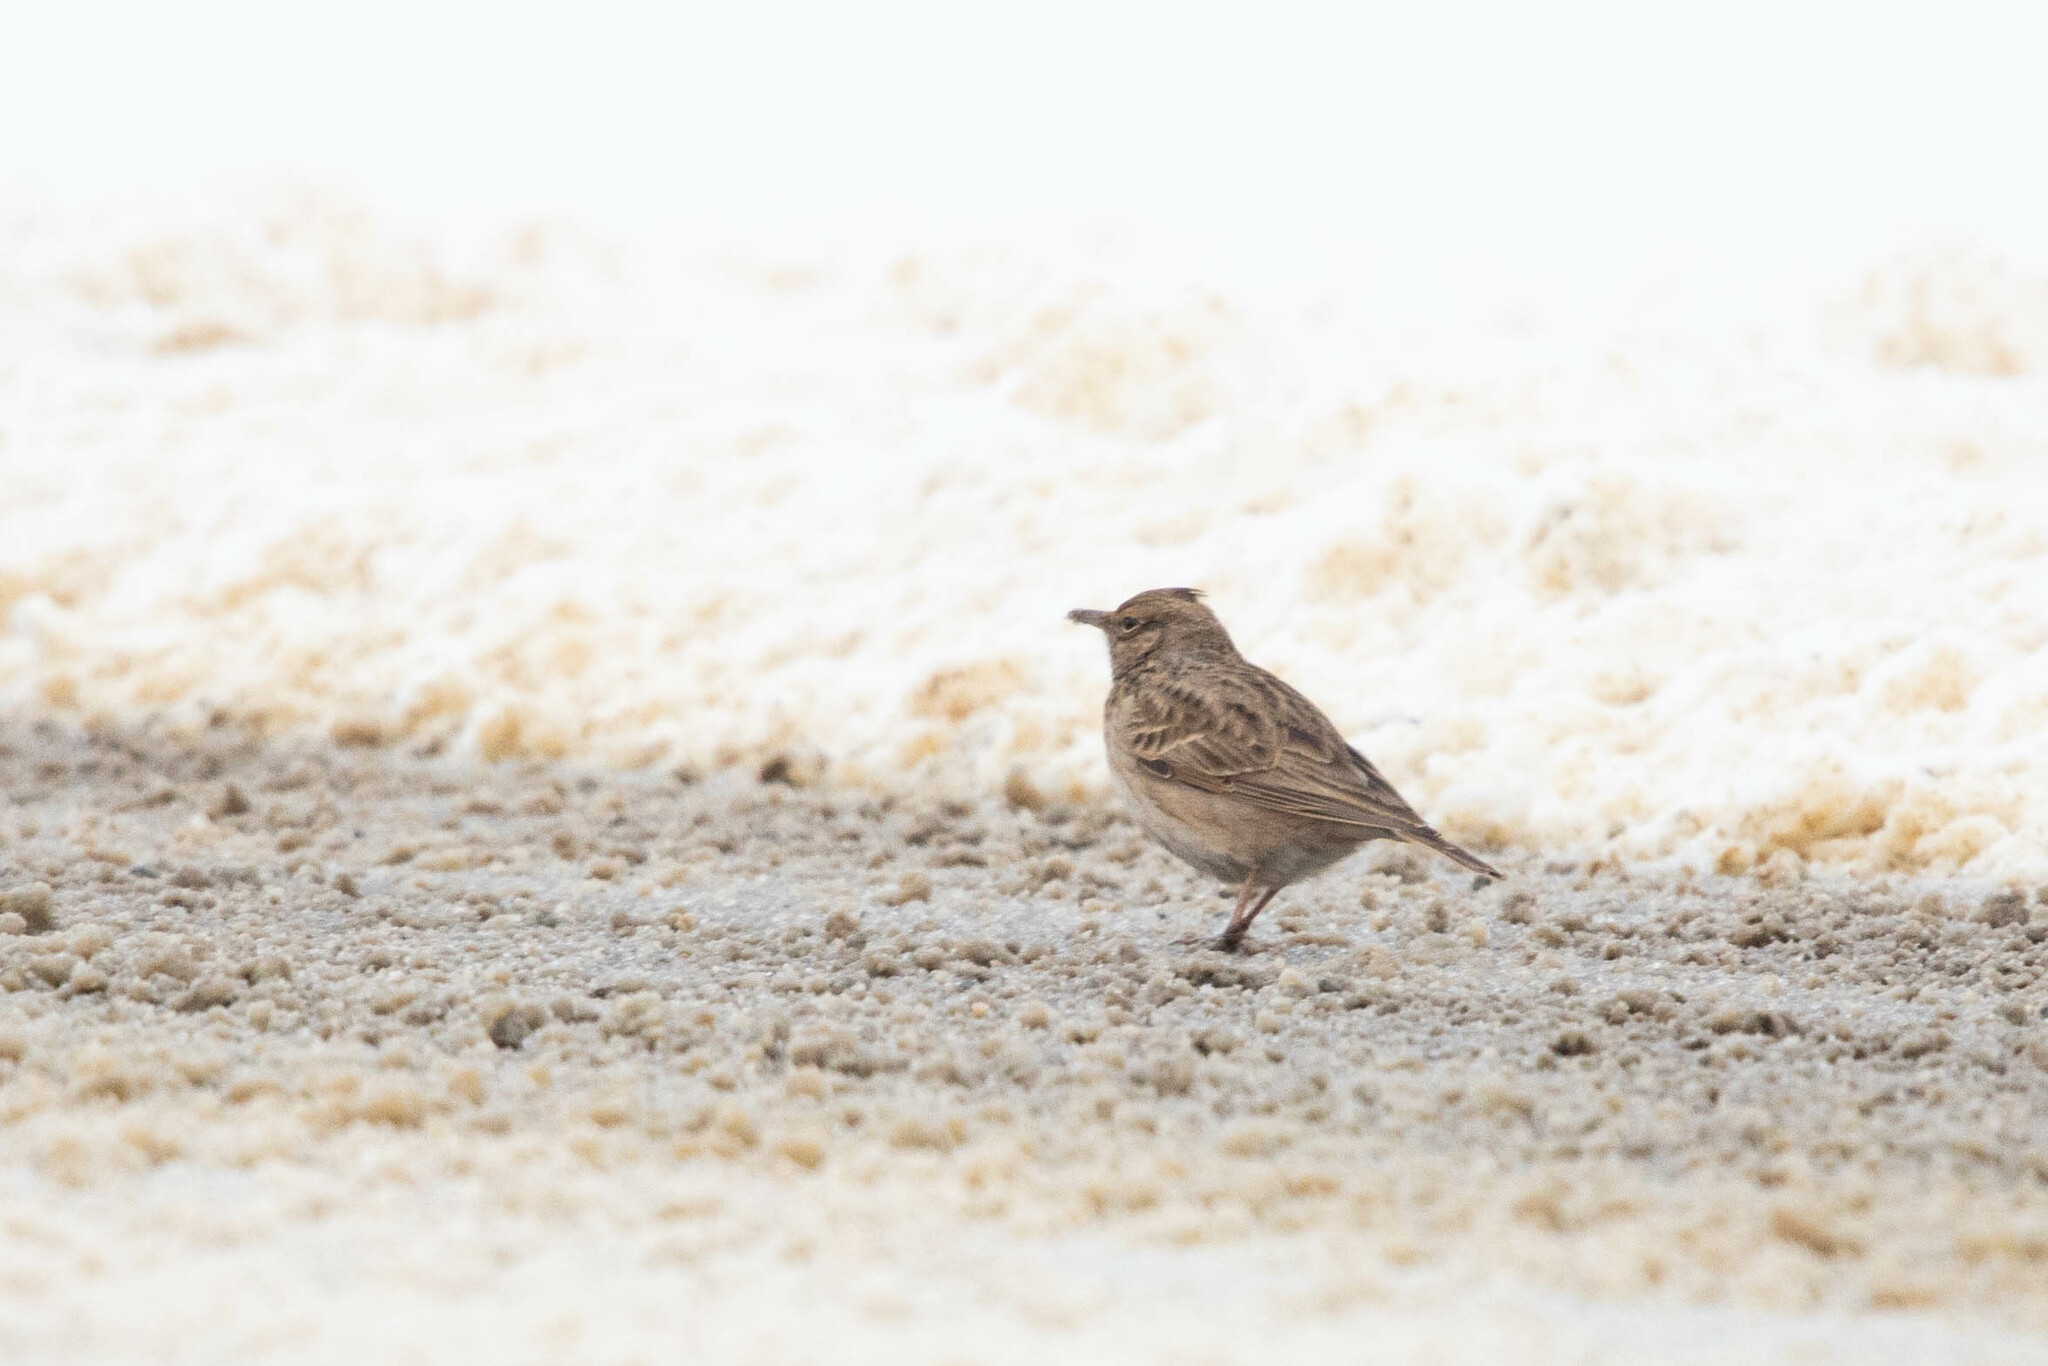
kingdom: Animalia
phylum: Chordata
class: Aves
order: Passeriformes
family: Alaudidae
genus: Galerida
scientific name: Galerida cristata
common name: Crested lark
